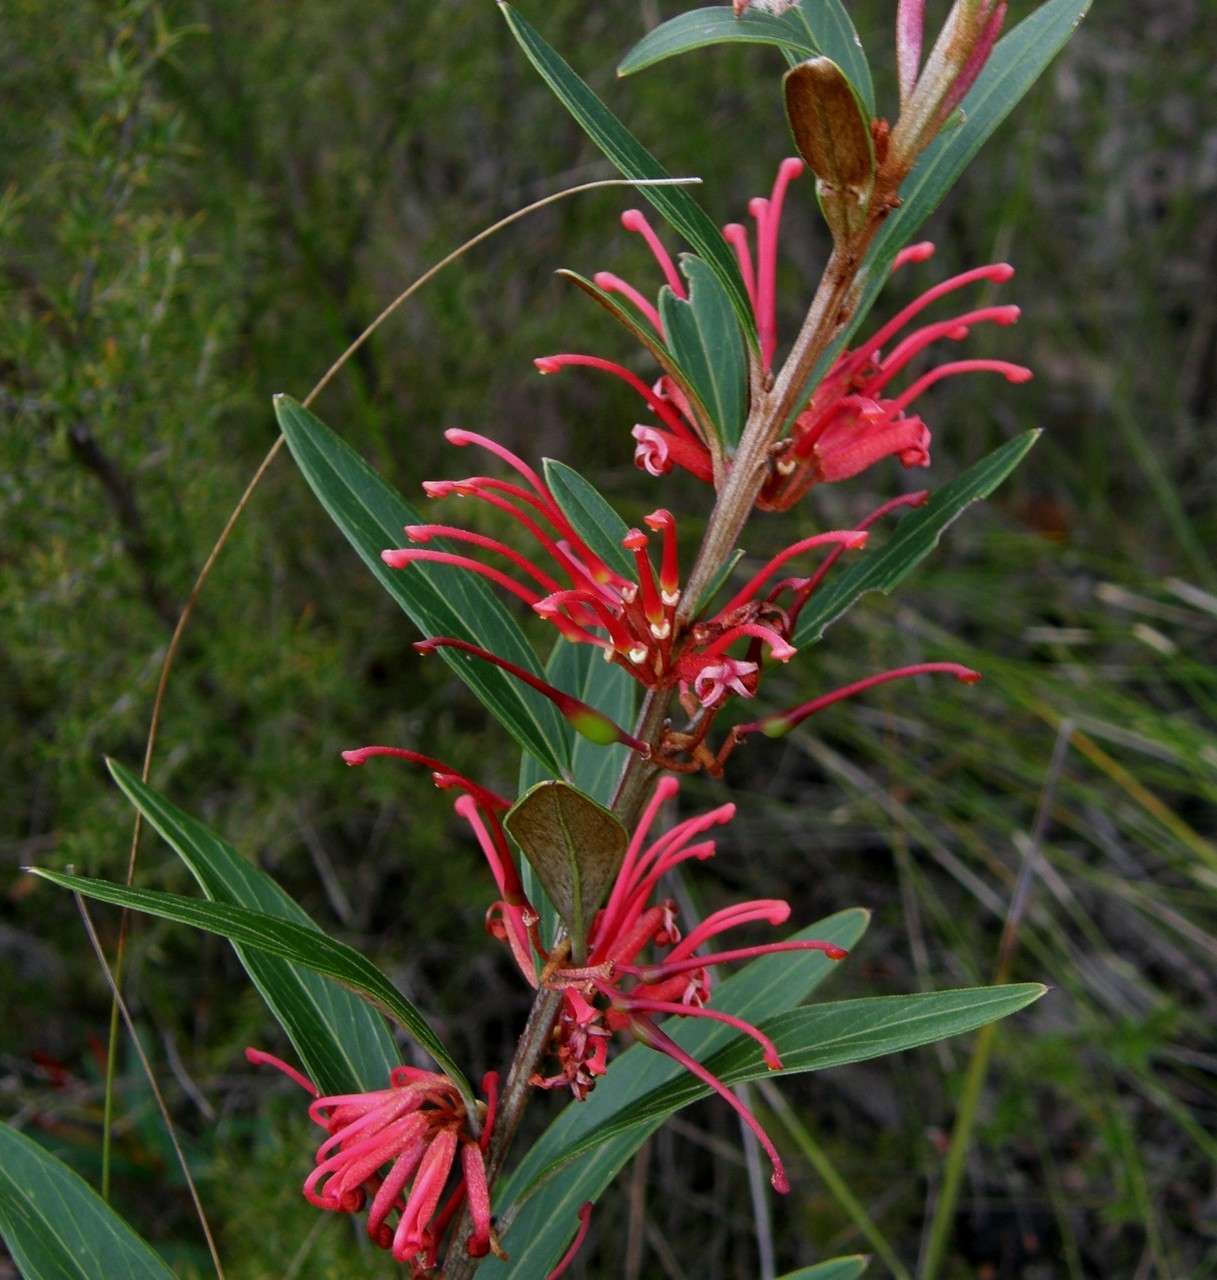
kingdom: Plantae
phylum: Tracheophyta
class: Magnoliopsida
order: Proteales
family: Proteaceae
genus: Grevillea
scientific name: Grevillea dimorpha
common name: Flame grevillea
